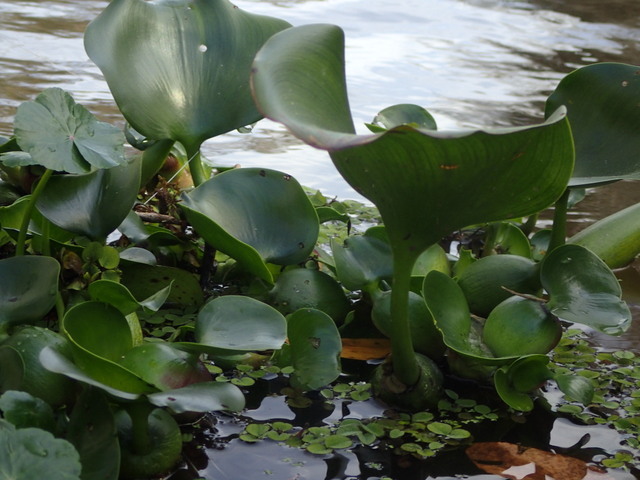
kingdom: Plantae
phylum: Tracheophyta
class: Liliopsida
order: Commelinales
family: Pontederiaceae
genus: Pontederia
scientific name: Pontederia crassipes
